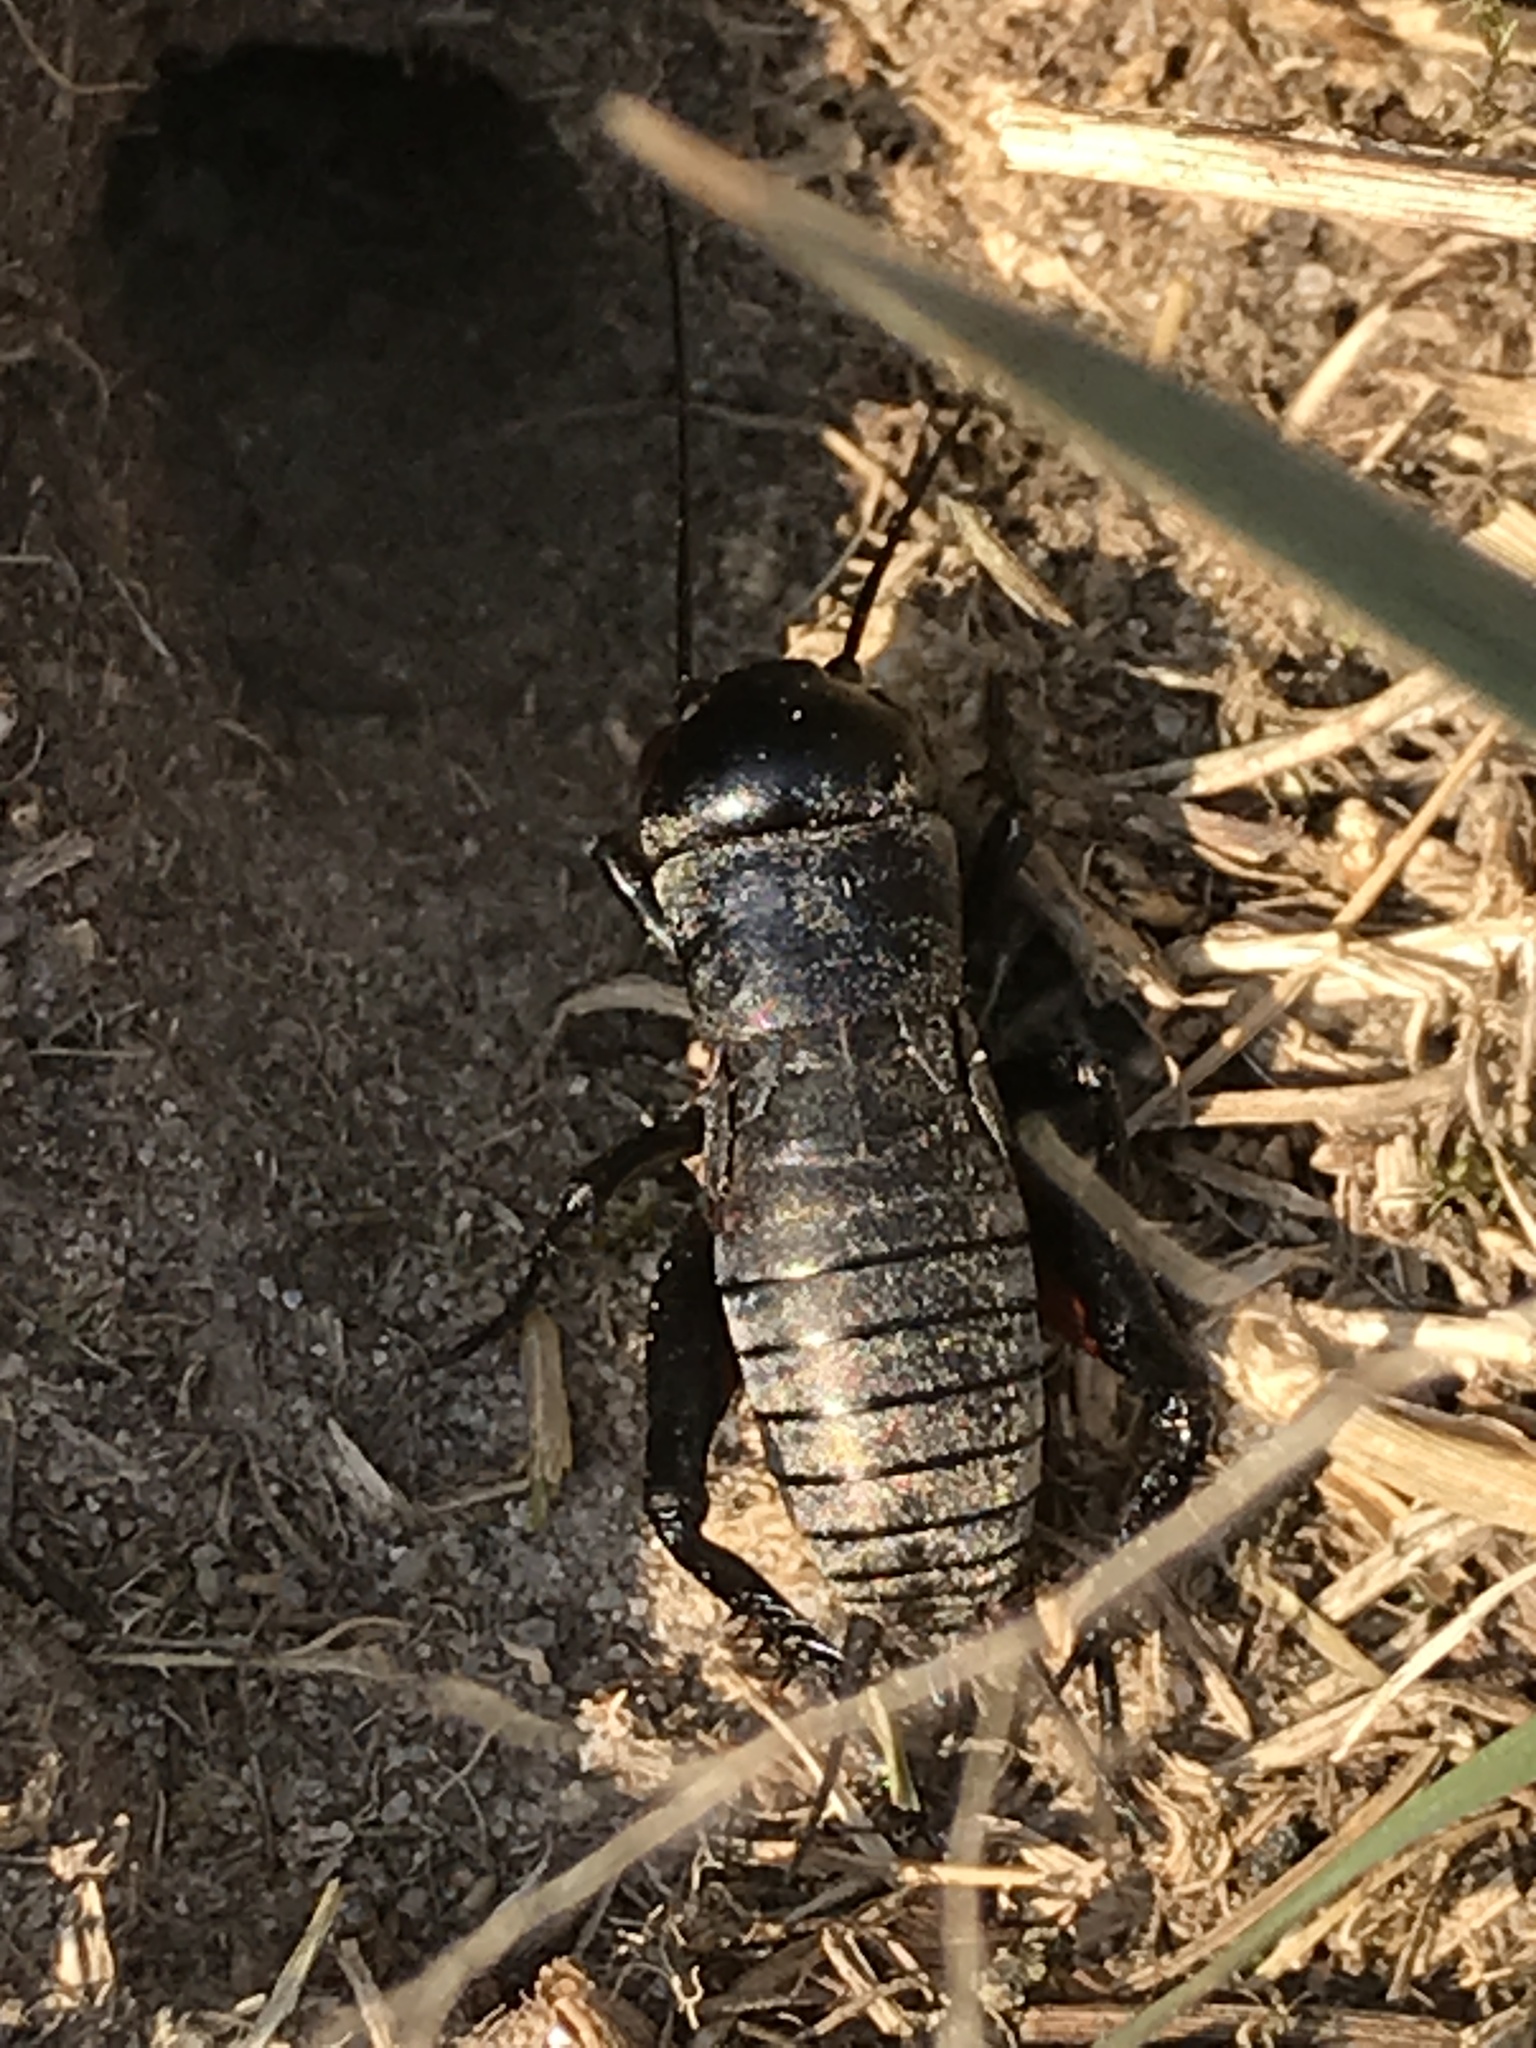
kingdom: Animalia
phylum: Arthropoda
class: Insecta
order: Orthoptera
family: Gryllidae
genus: Gryllus
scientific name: Gryllus campestris
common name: Field cricket
